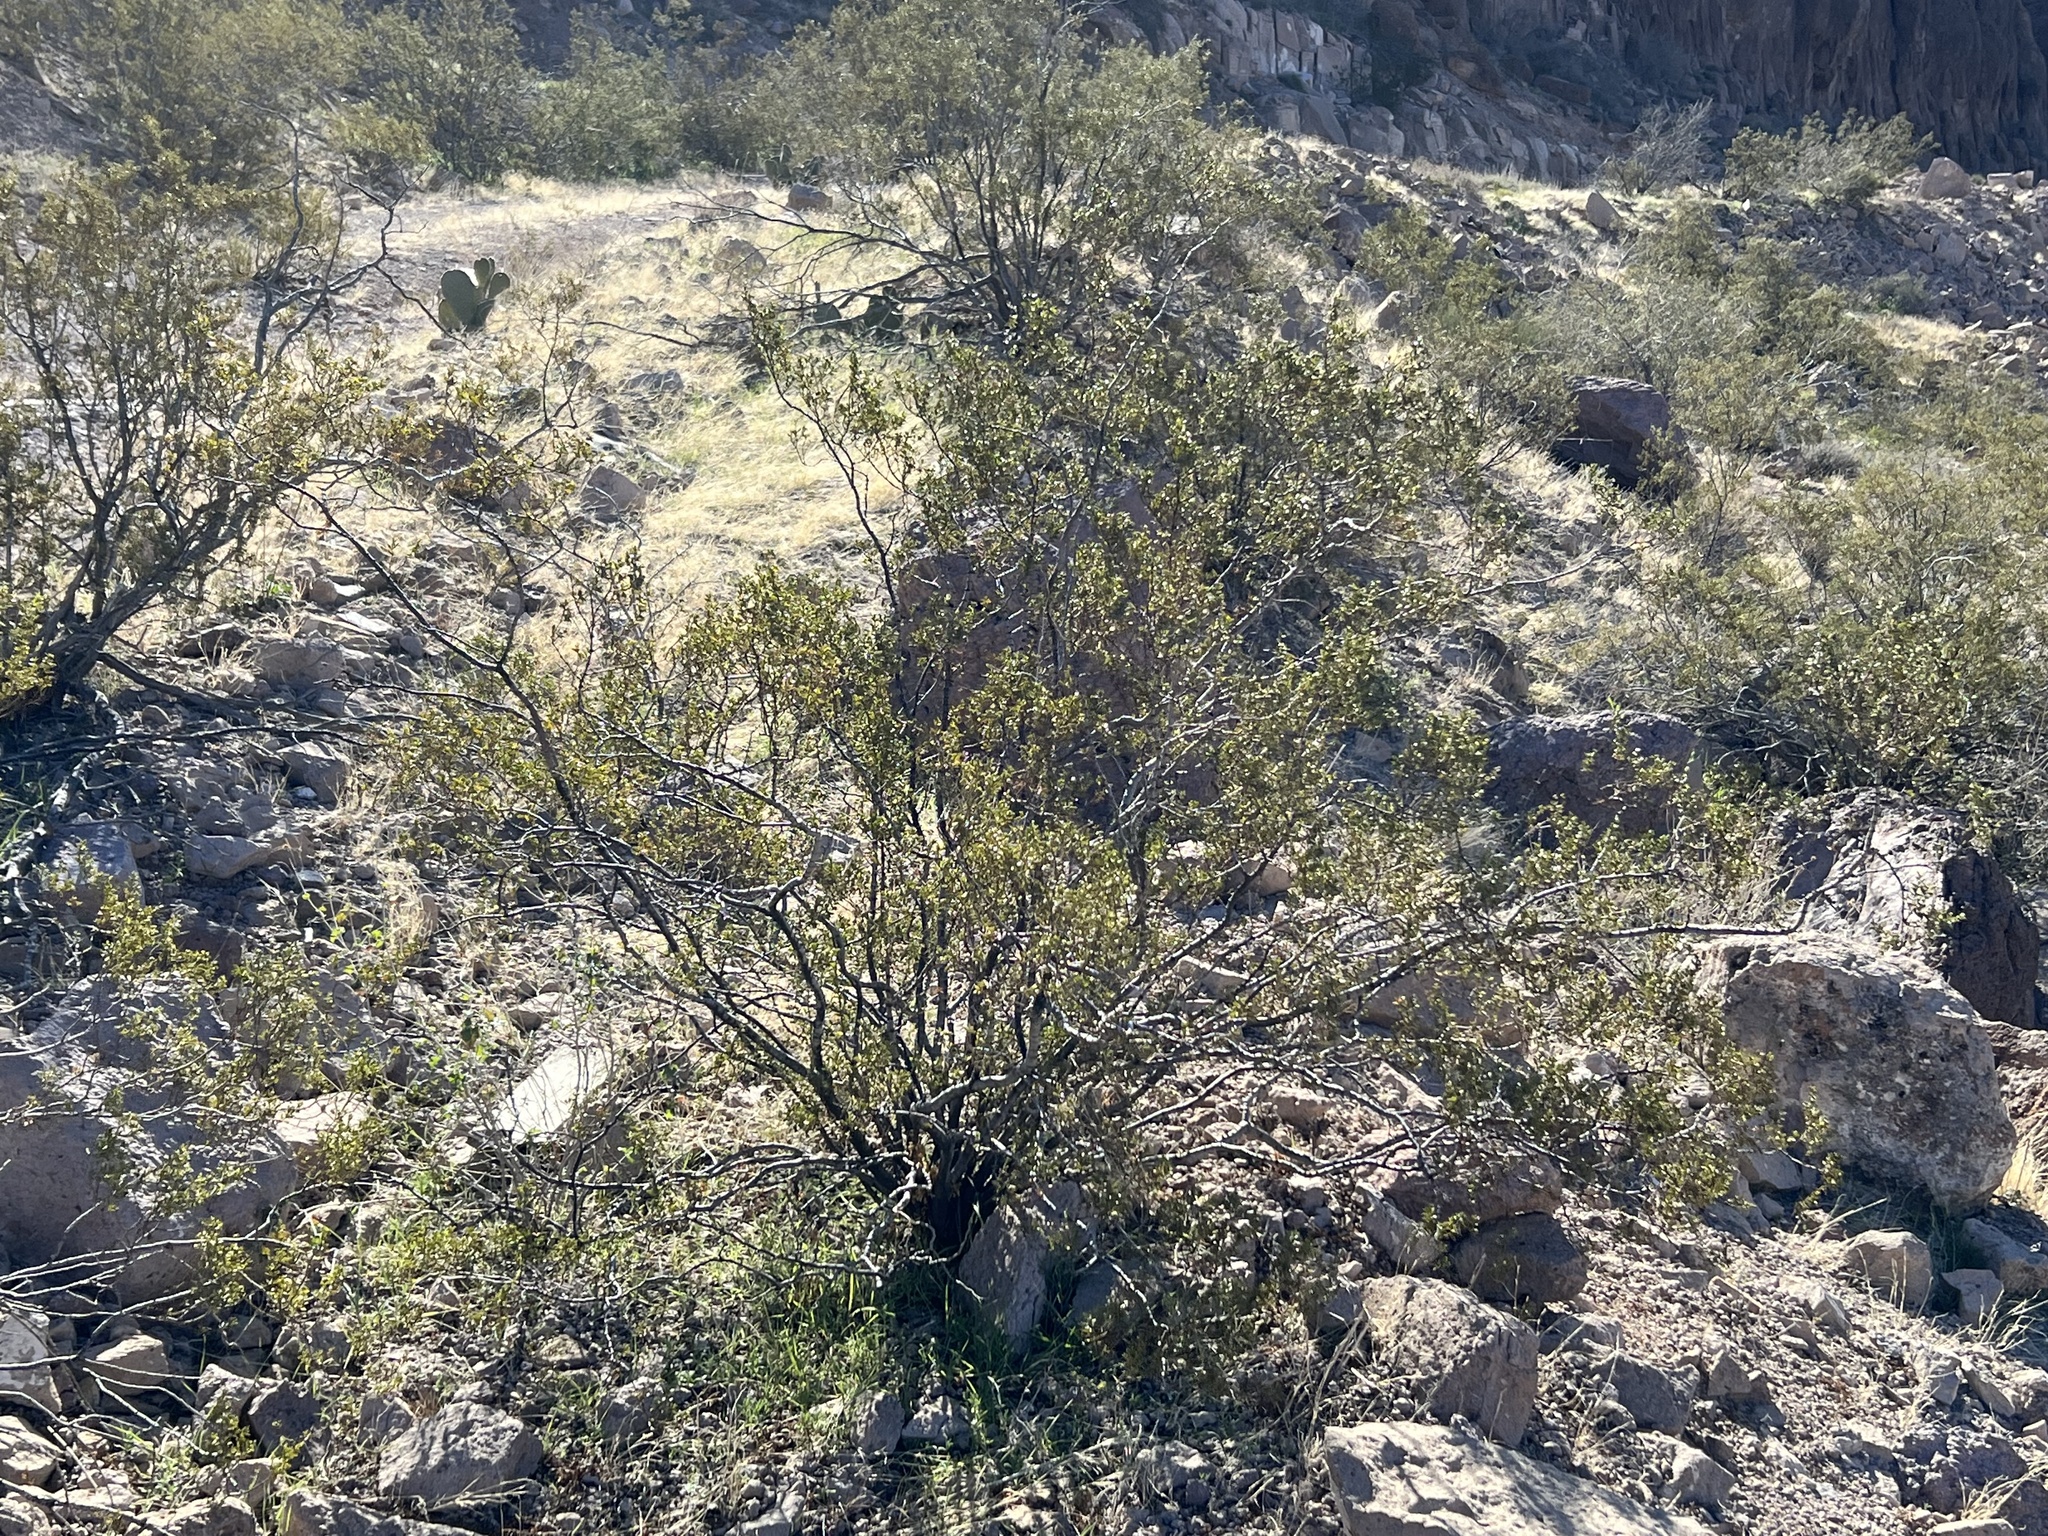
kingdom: Plantae
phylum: Tracheophyta
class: Magnoliopsida
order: Zygophyllales
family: Zygophyllaceae
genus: Larrea
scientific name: Larrea tridentata
